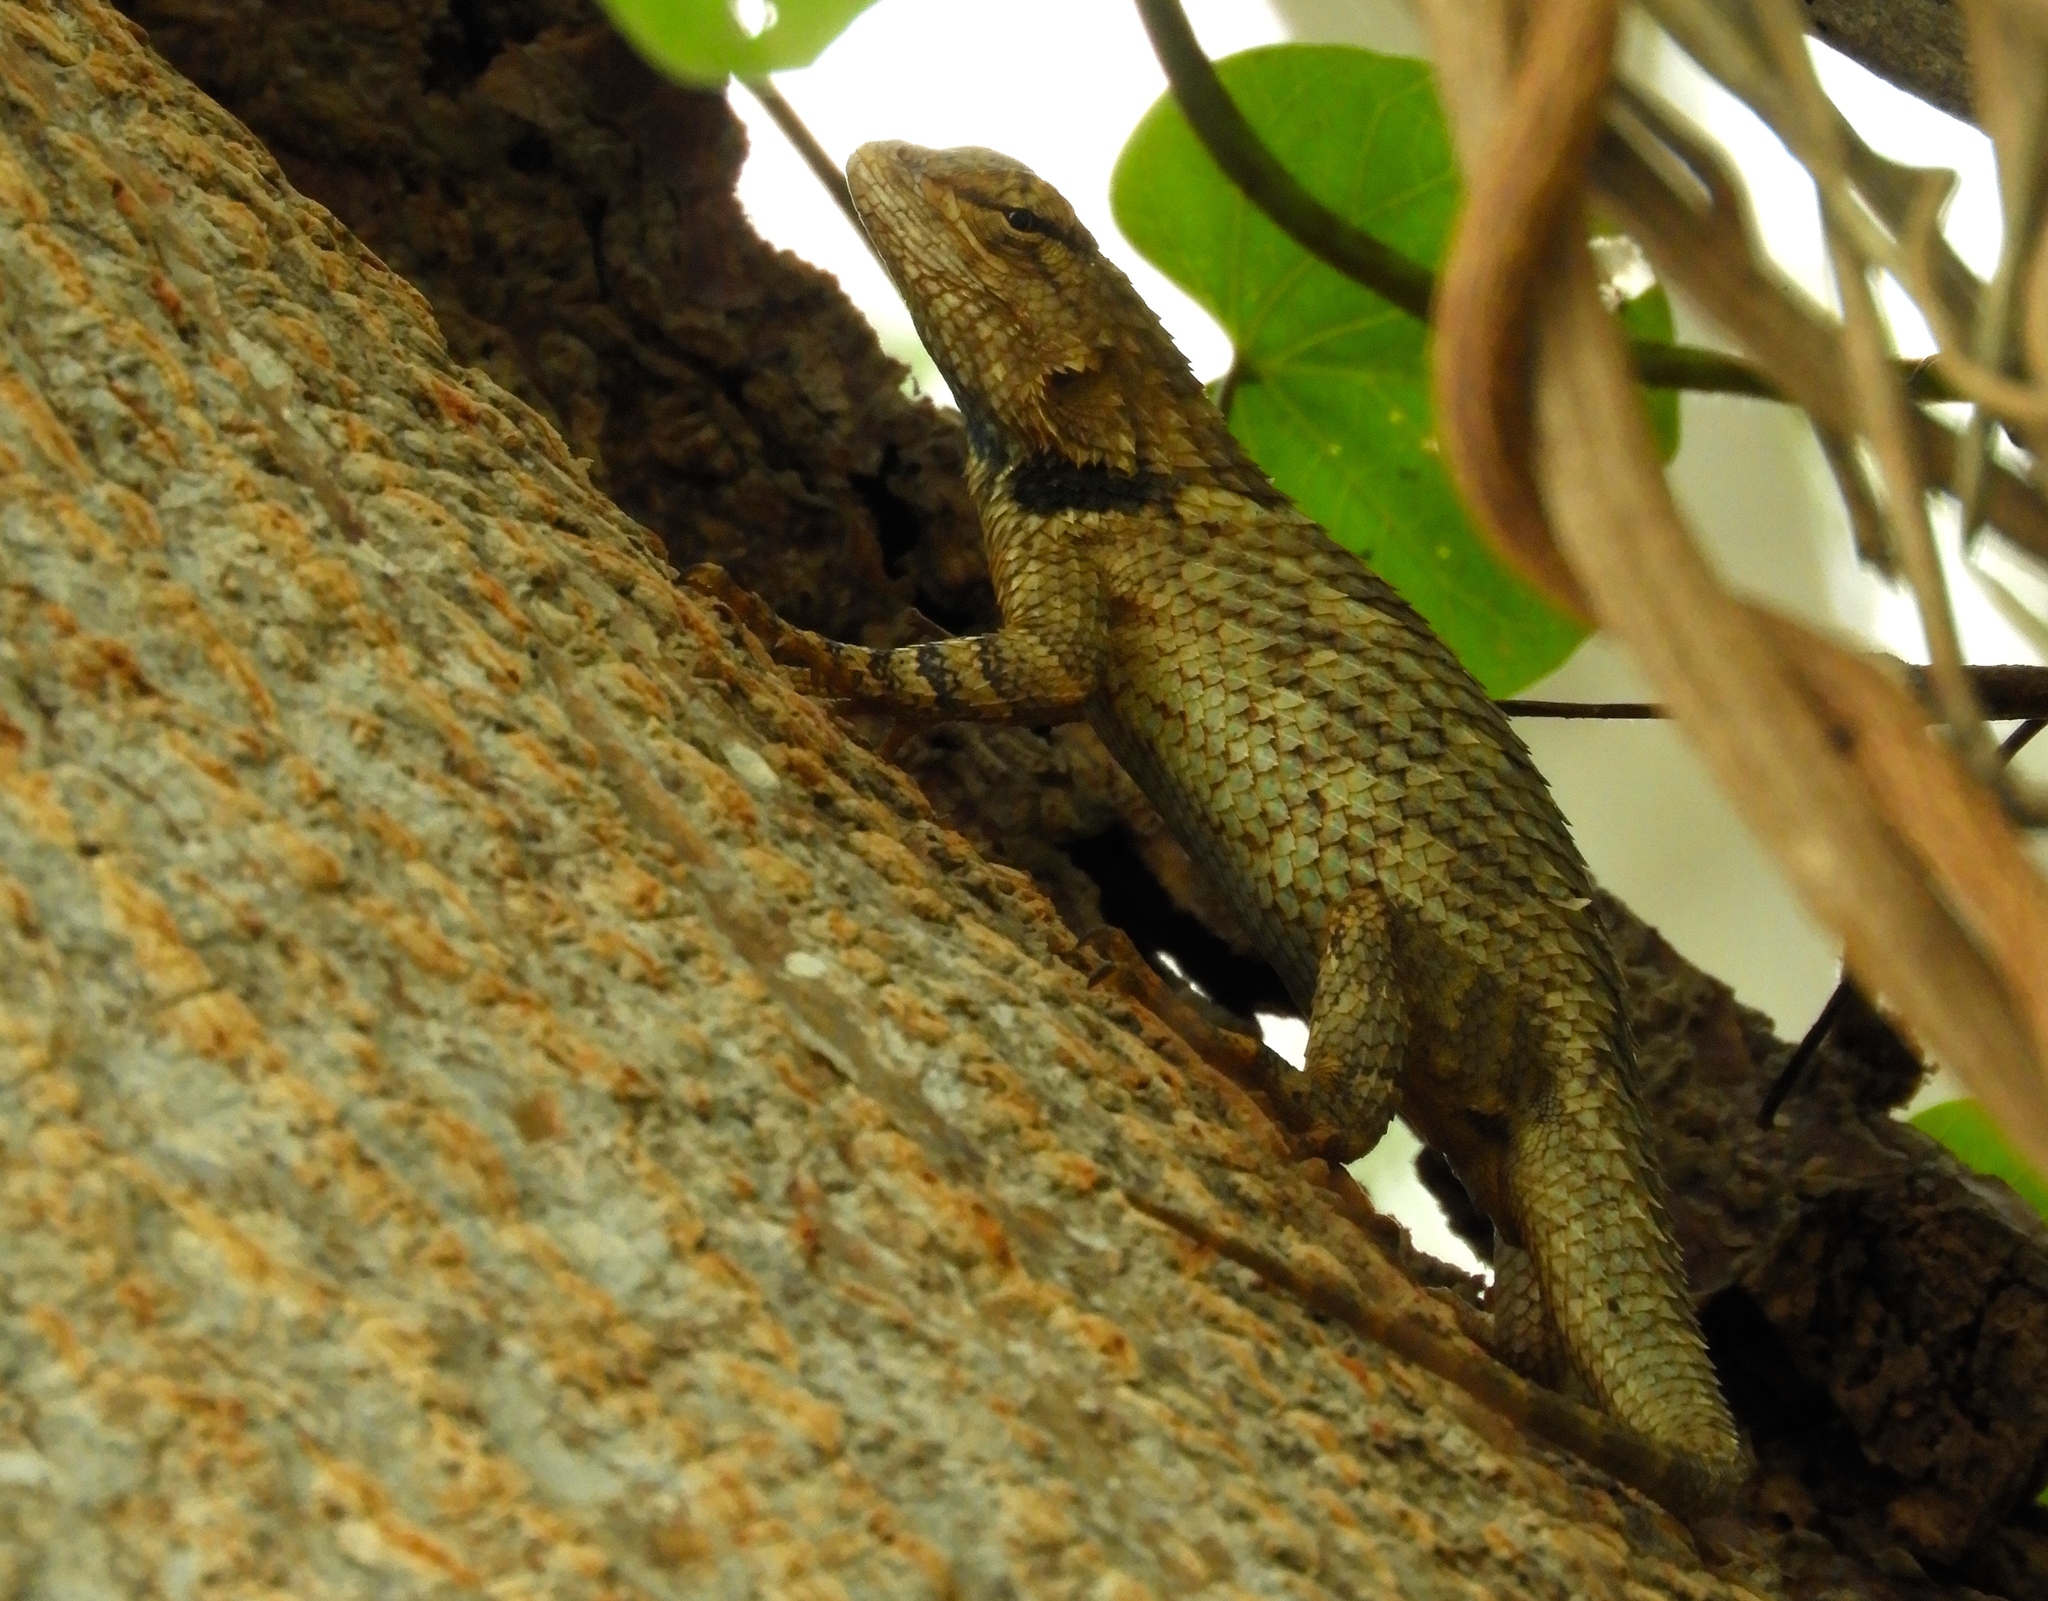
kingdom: Animalia
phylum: Chordata
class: Squamata
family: Phrynosomatidae
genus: Sceloporus
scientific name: Sceloporus clarkii
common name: Clark's spiny lizard
